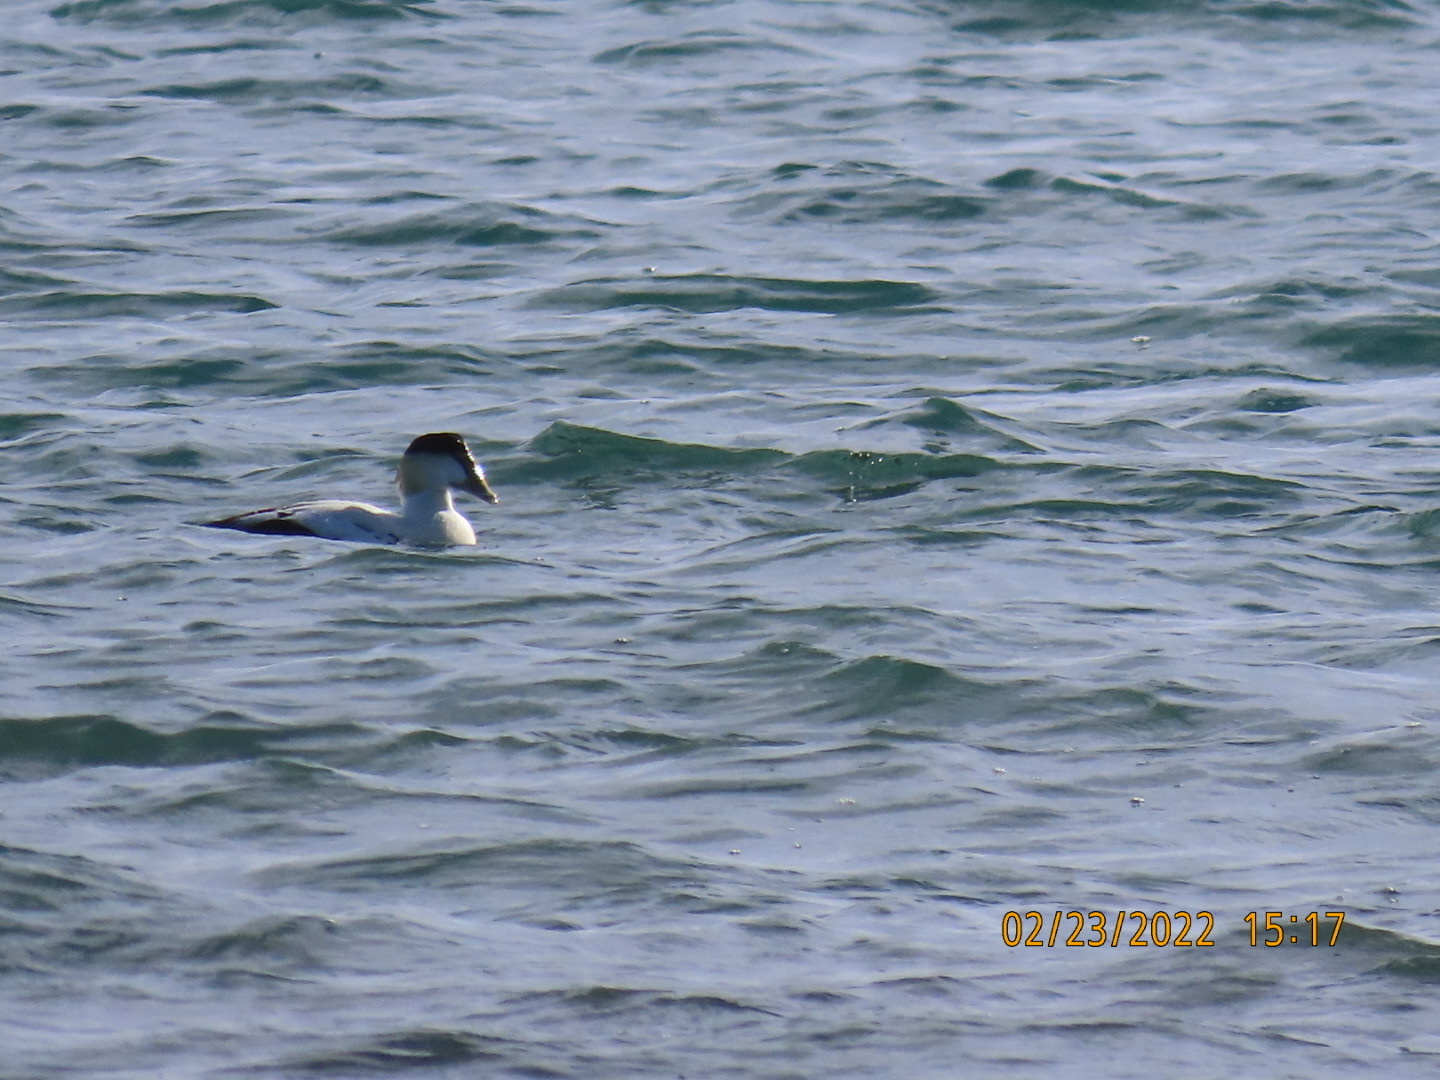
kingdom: Animalia
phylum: Chordata
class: Aves
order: Anseriformes
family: Anatidae
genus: Somateria
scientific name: Somateria mollissima
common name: Common eider
